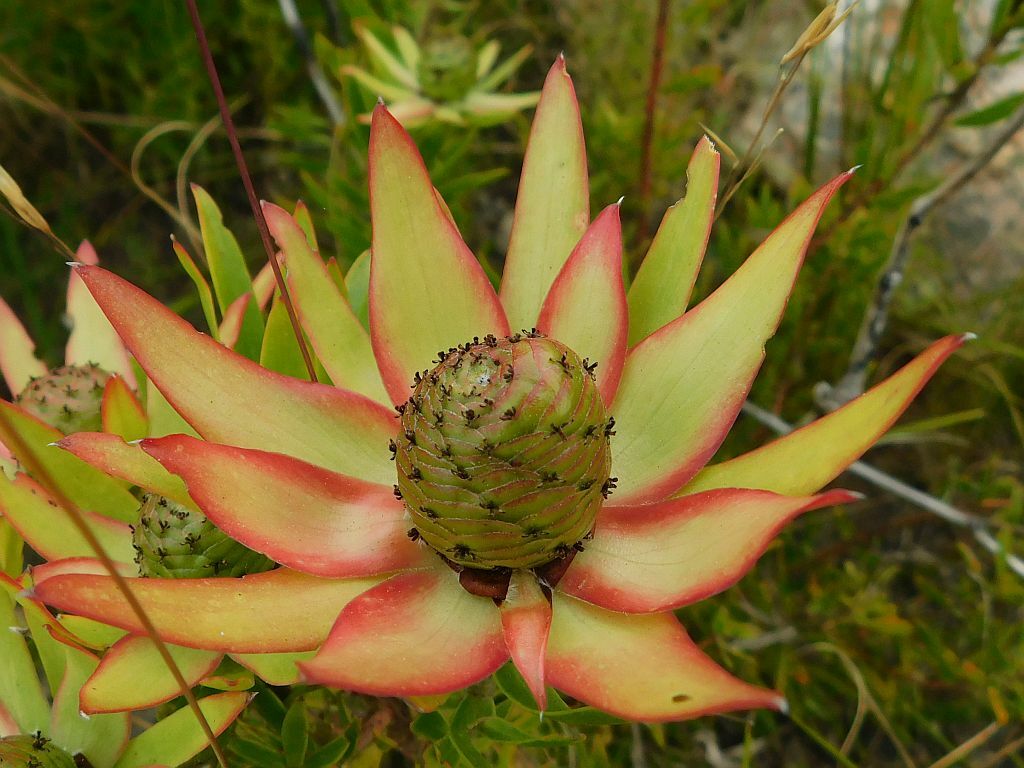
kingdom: Plantae
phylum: Tracheophyta
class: Magnoliopsida
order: Proteales
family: Proteaceae
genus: Leucadendron
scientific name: Leucadendron spissifolium
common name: Spear-leaf conebush
